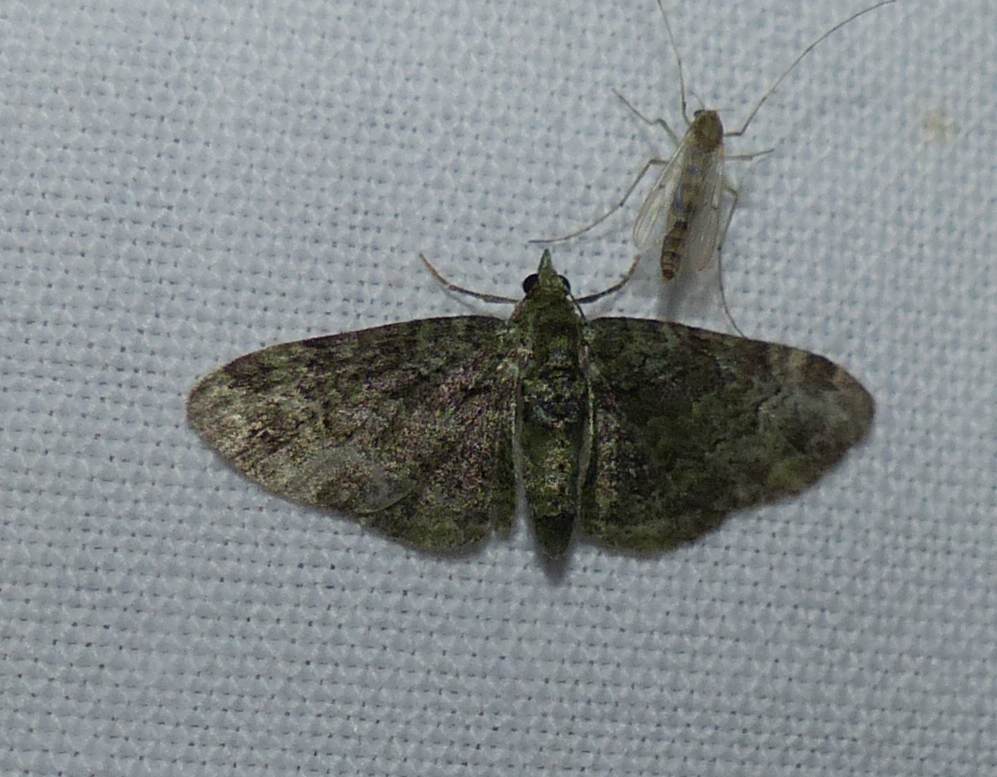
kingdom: Animalia
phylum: Arthropoda
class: Insecta
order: Lepidoptera
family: Geometridae
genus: Pasiphila
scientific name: Pasiphila rectangulata
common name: Green pug
